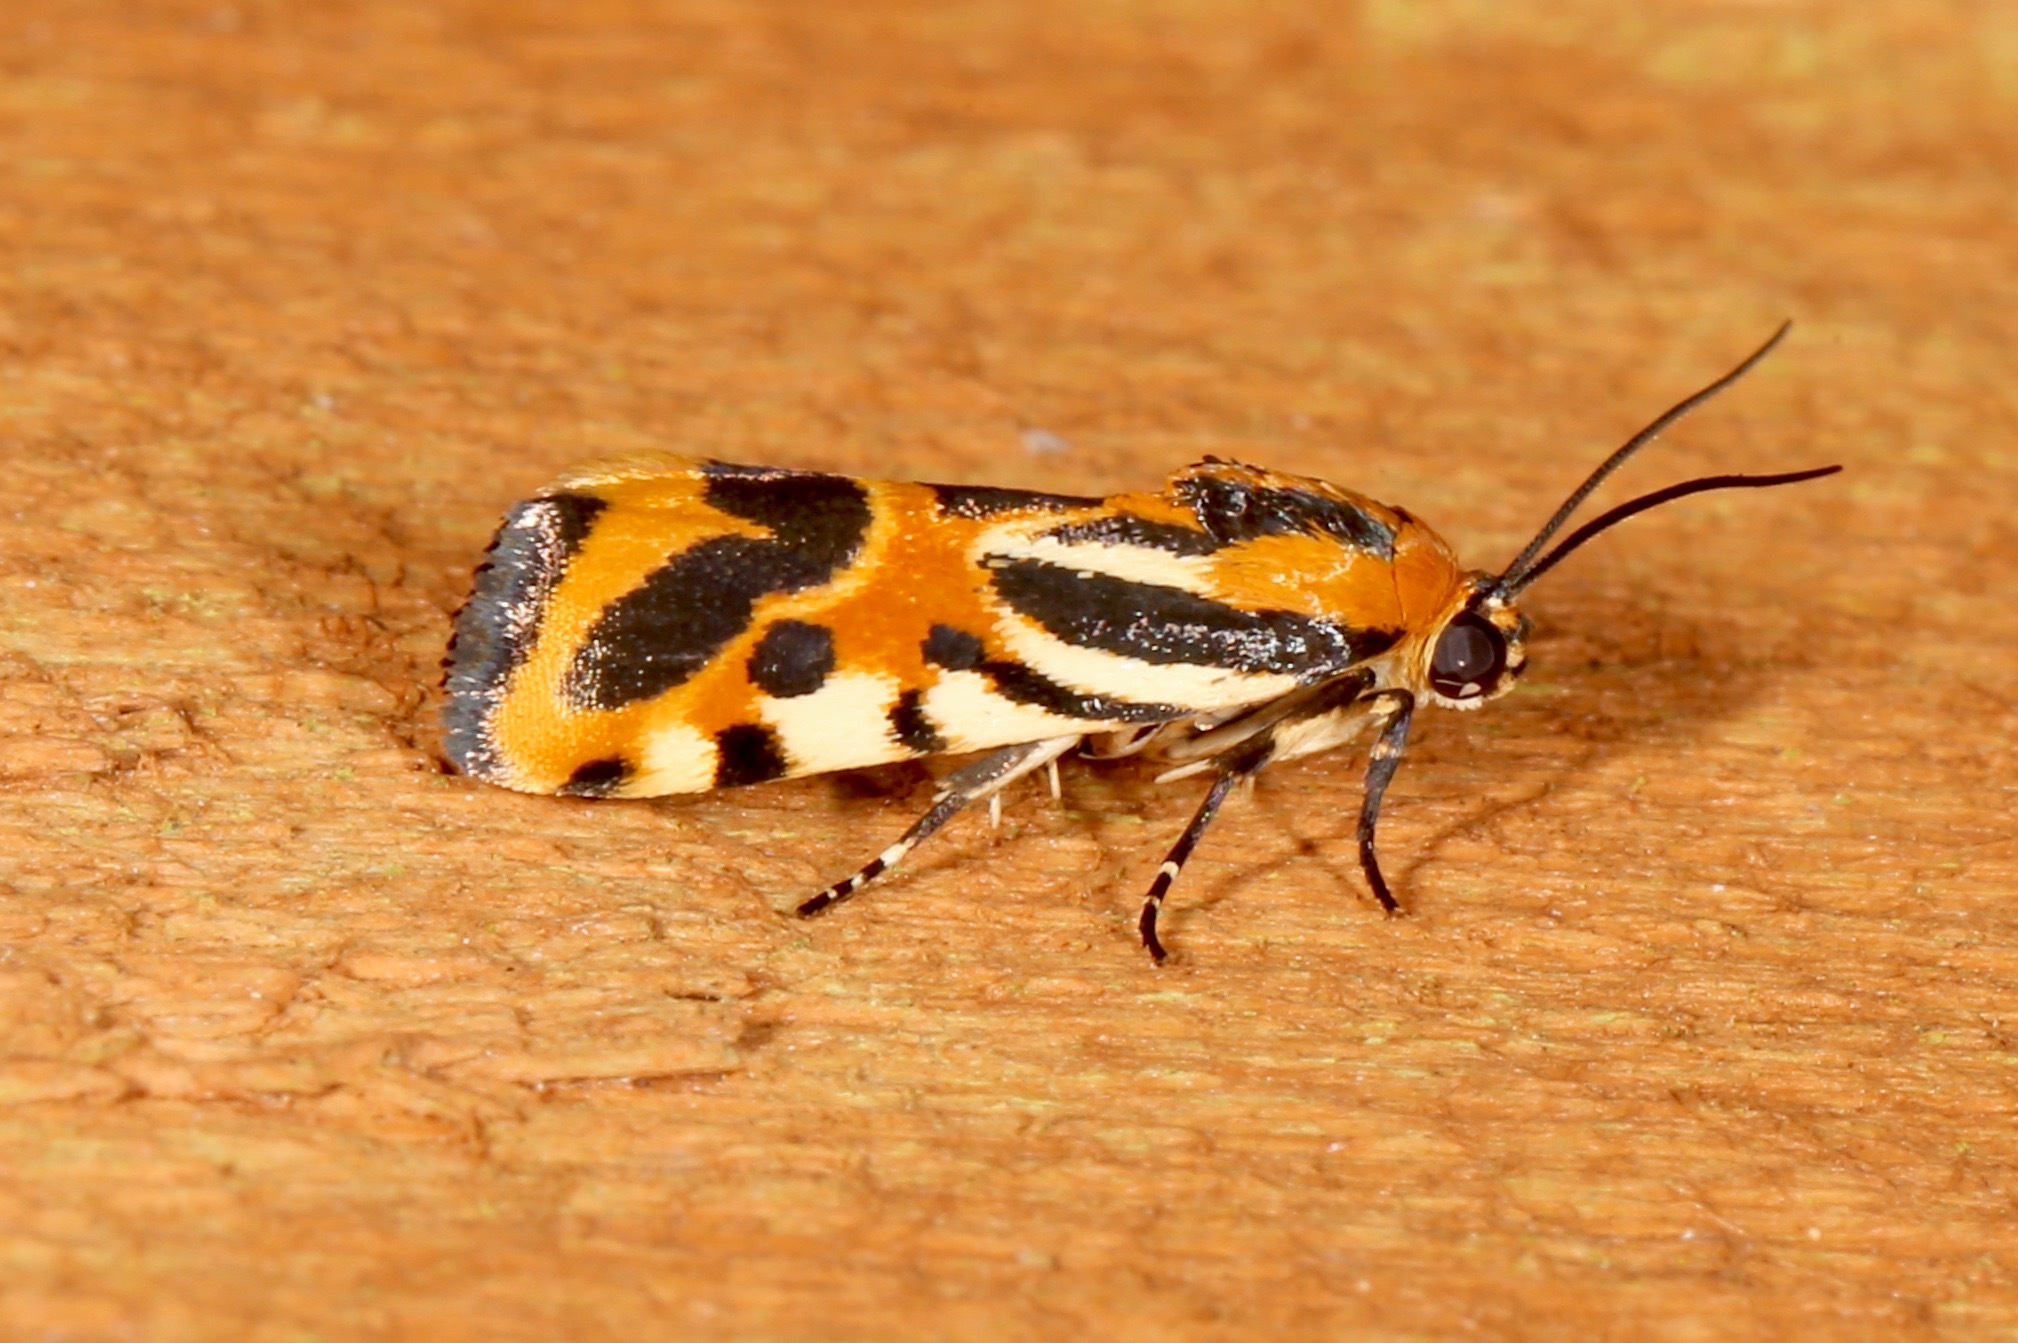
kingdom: Animalia
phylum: Arthropoda
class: Insecta
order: Lepidoptera
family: Noctuidae
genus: Acontia
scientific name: Acontia onagrus
